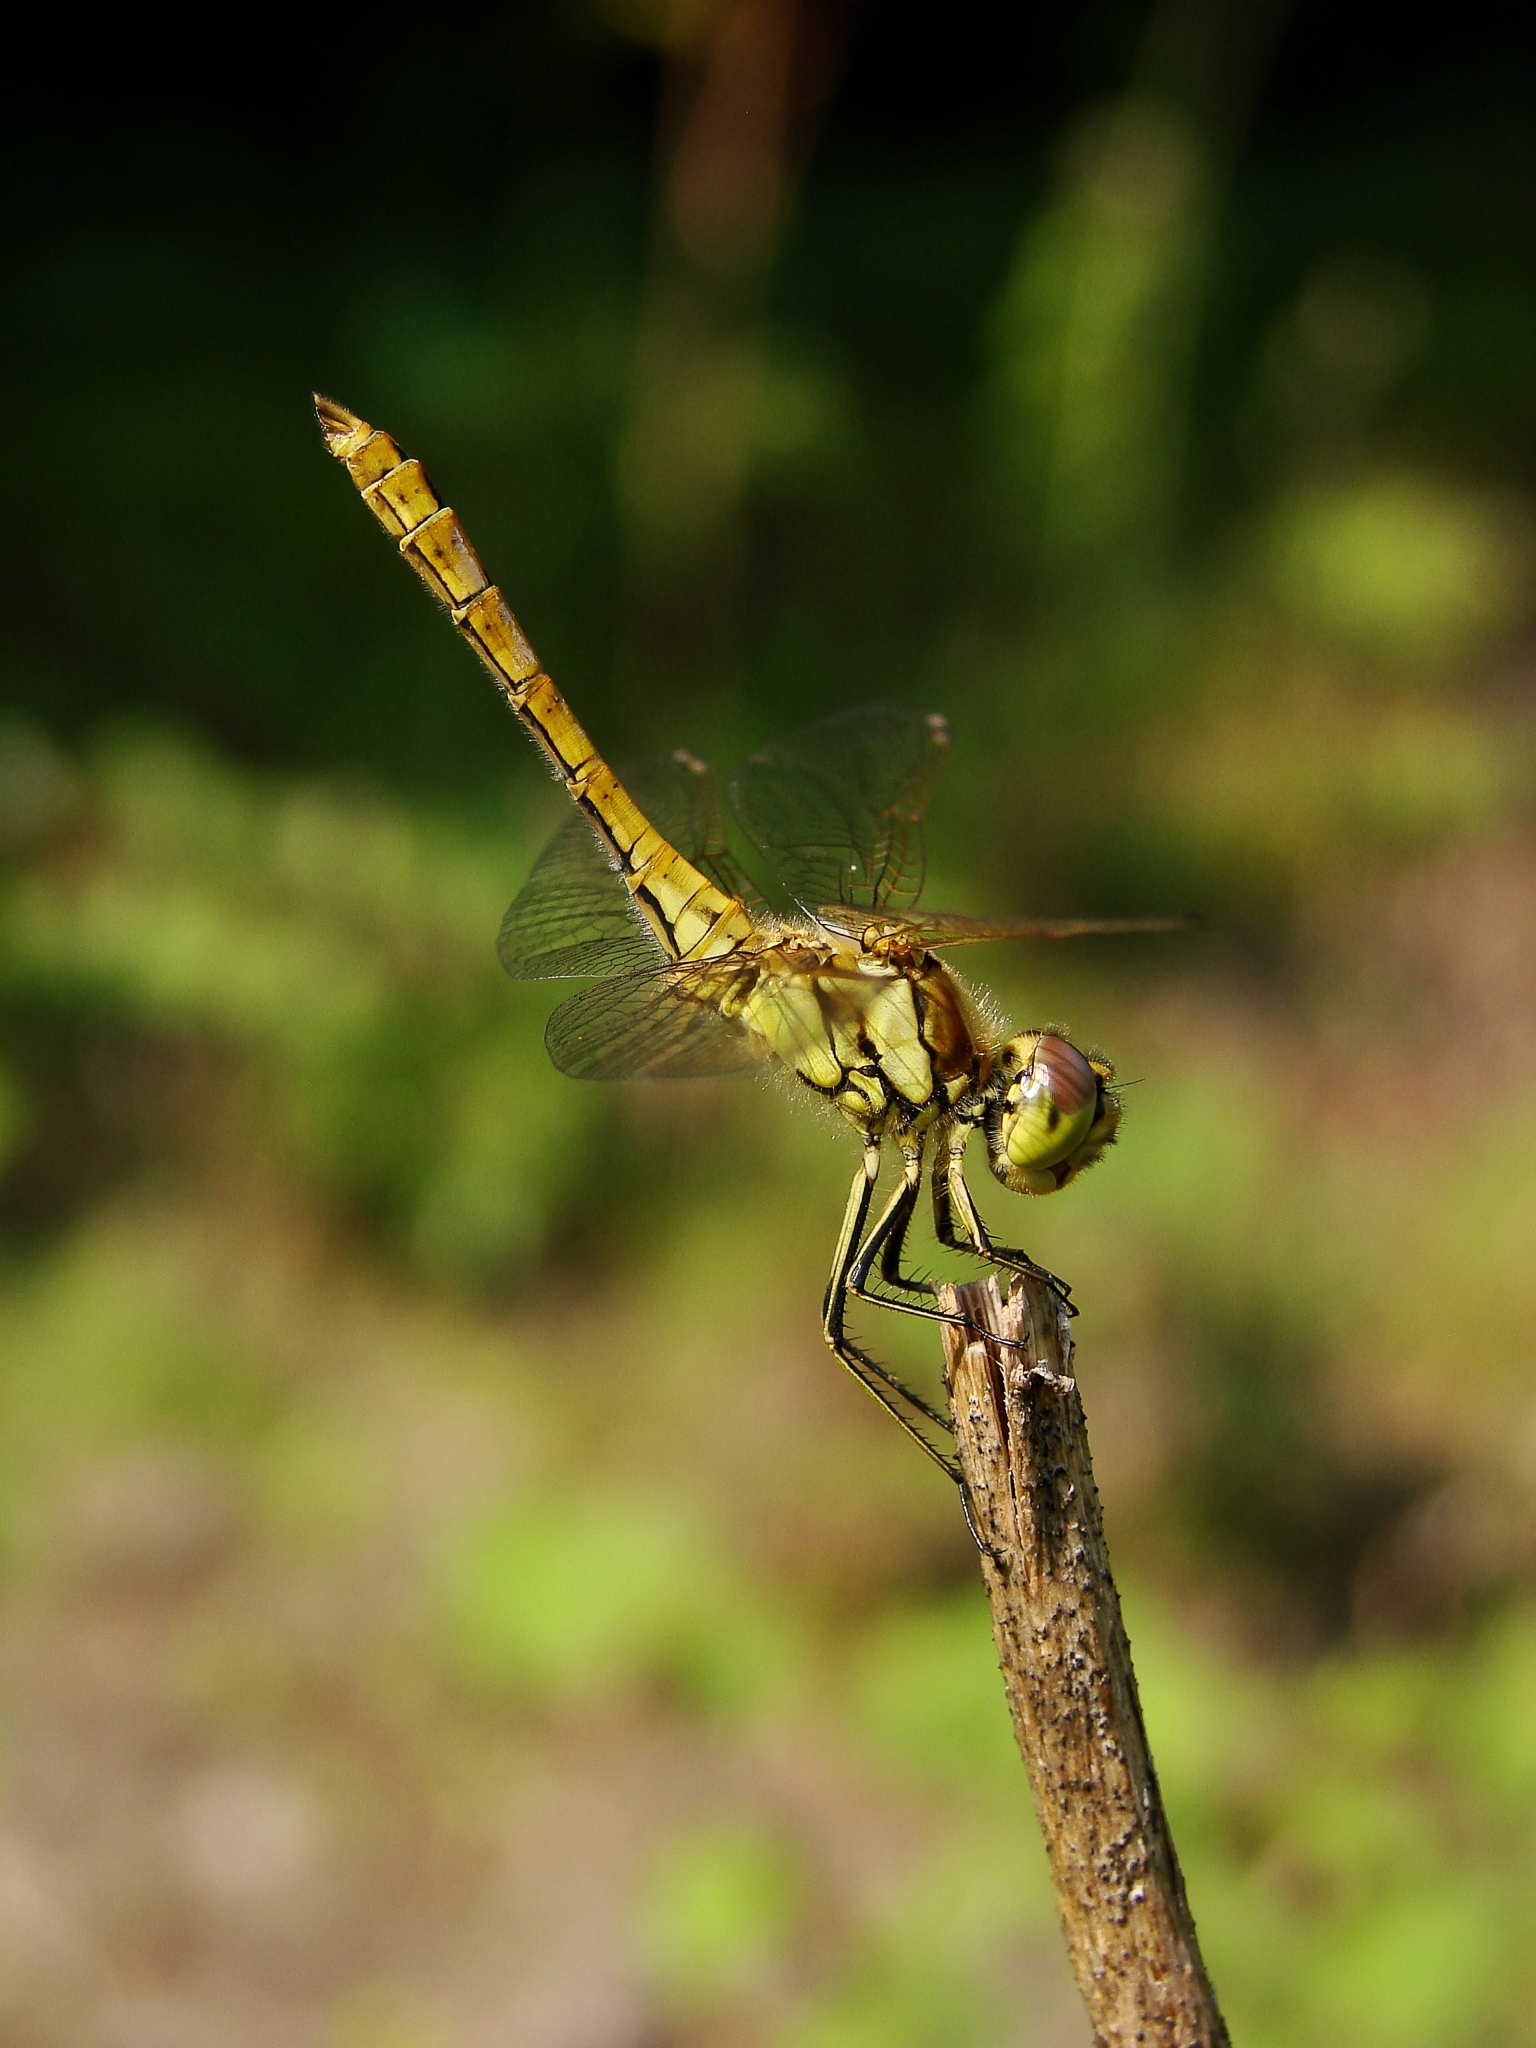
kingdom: Animalia
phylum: Arthropoda
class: Insecta
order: Odonata
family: Libellulidae
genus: Sympetrum
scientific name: Sympetrum vulgatum
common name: Vagrant darter
